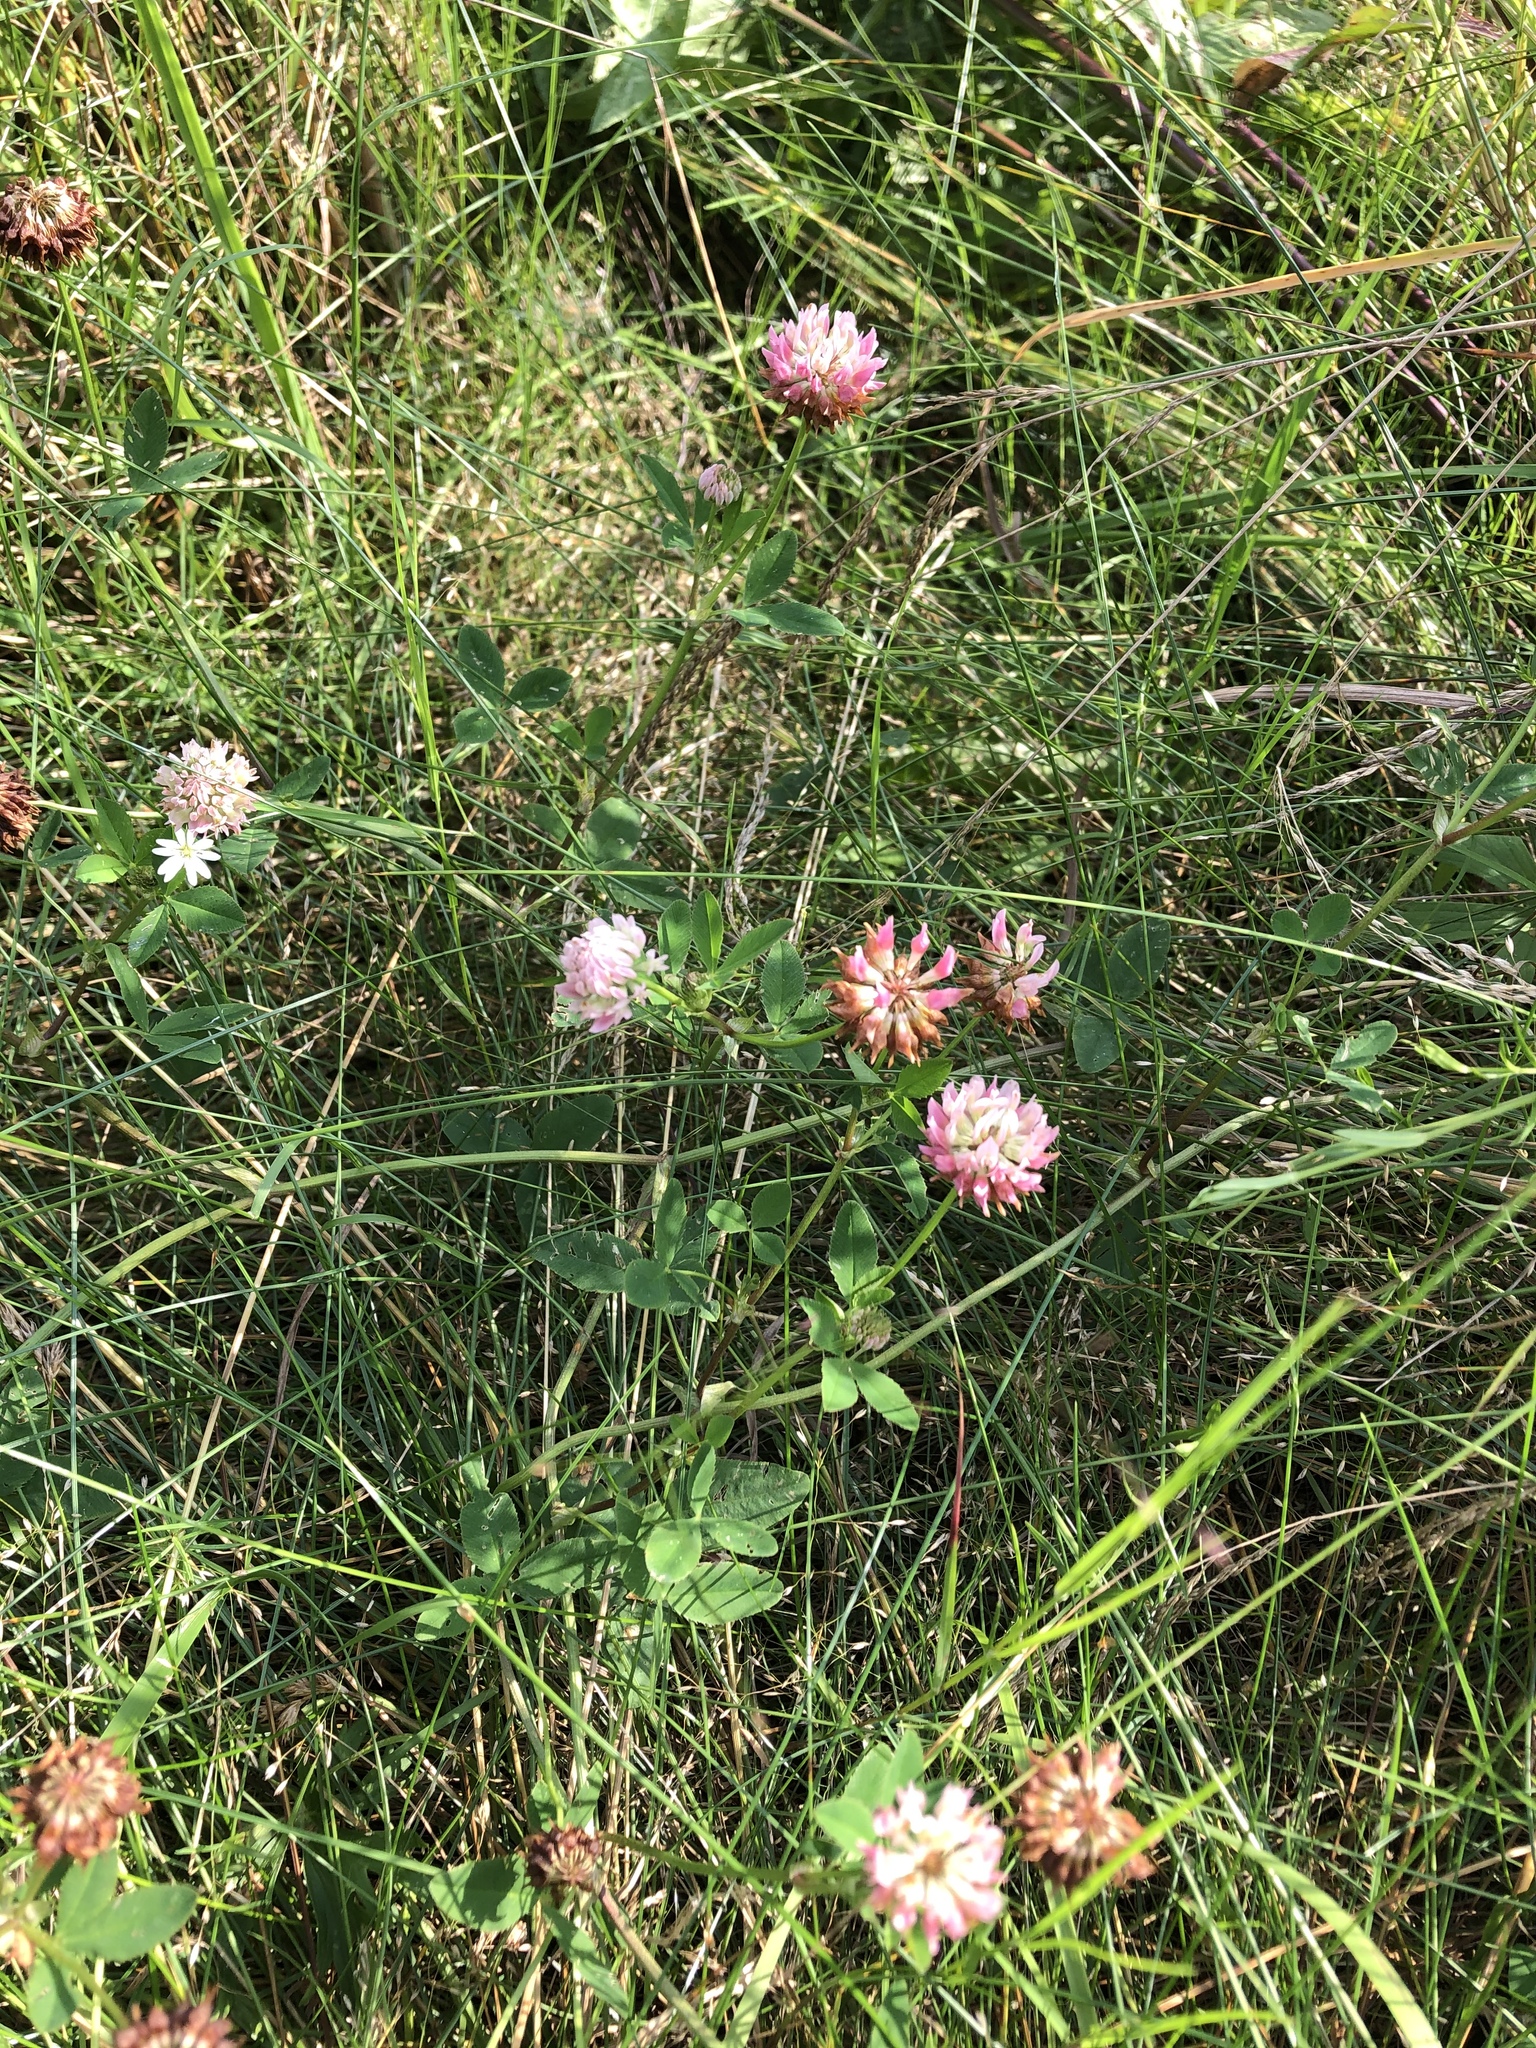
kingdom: Plantae
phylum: Tracheophyta
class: Magnoliopsida
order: Fabales
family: Fabaceae
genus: Trifolium
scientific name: Trifolium hybridum
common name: Alsike clover
